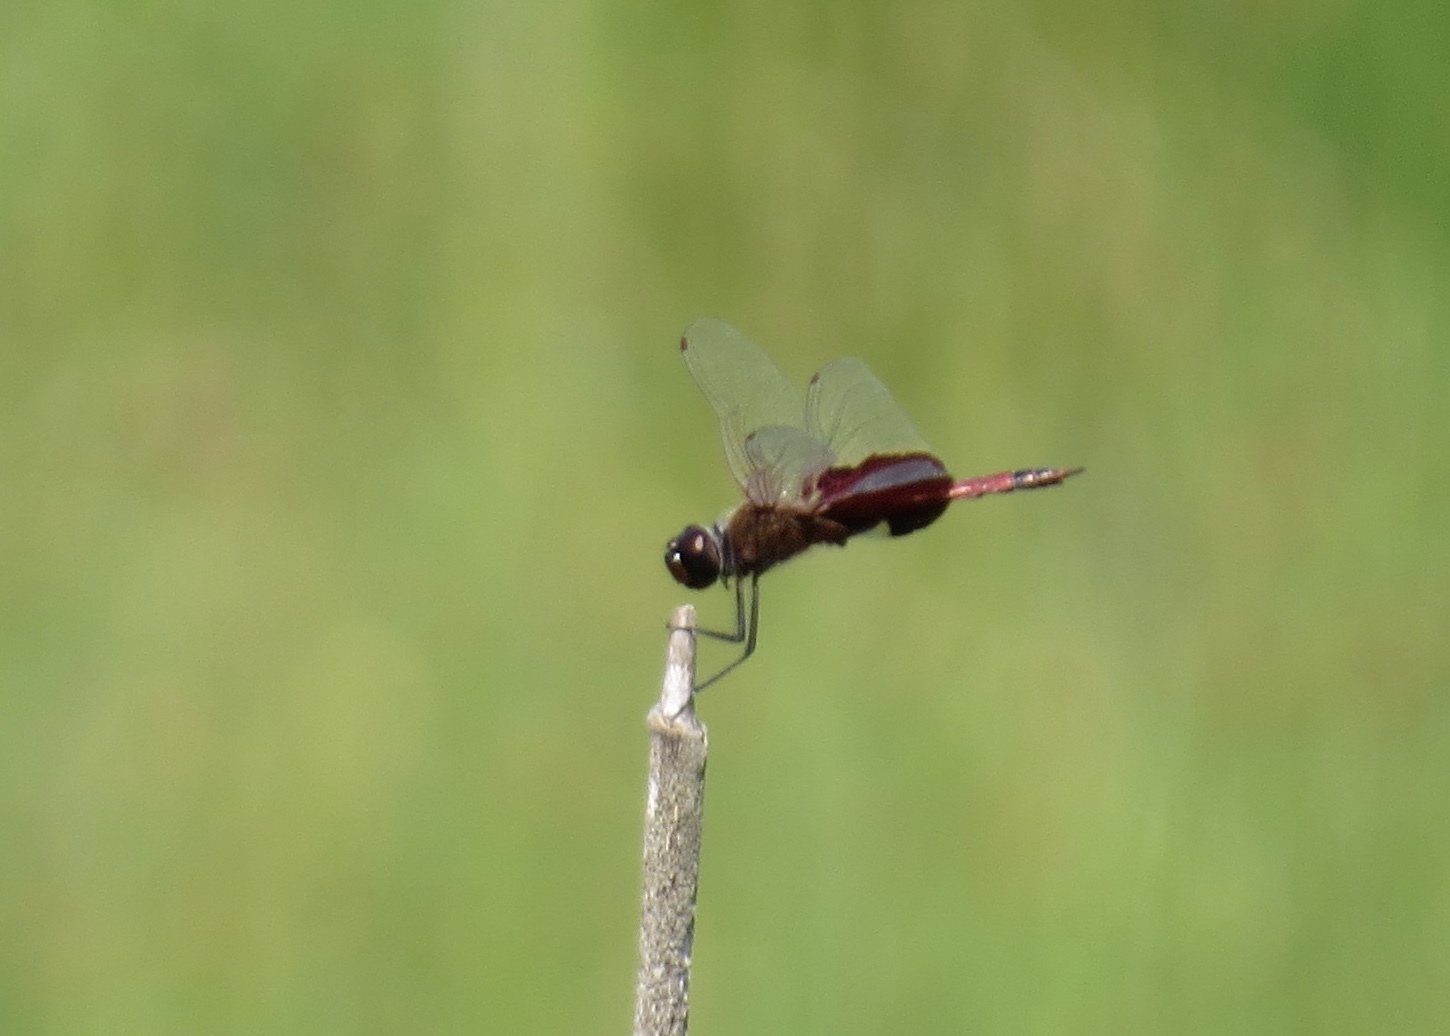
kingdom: Animalia
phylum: Arthropoda
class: Insecta
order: Odonata
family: Libellulidae
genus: Tramea
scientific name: Tramea carolina
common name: Carolina saddlebags
